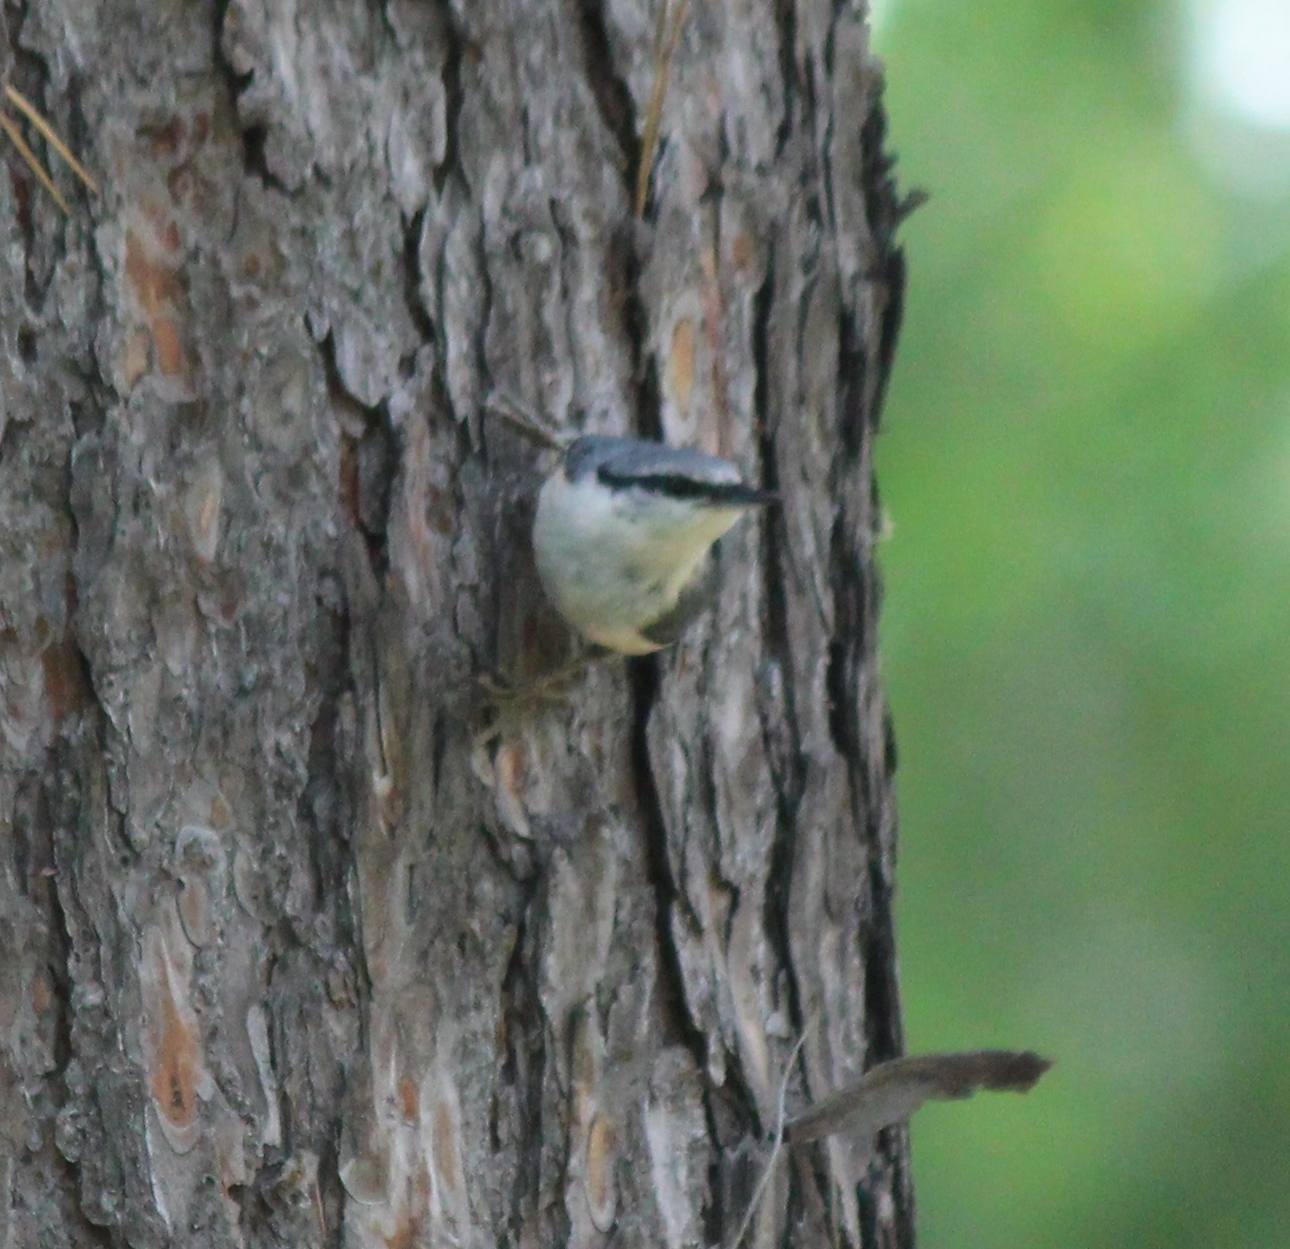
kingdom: Animalia
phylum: Chordata
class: Aves
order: Passeriformes
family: Sittidae
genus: Sitta
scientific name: Sitta europaea
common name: Eurasian nuthatch
